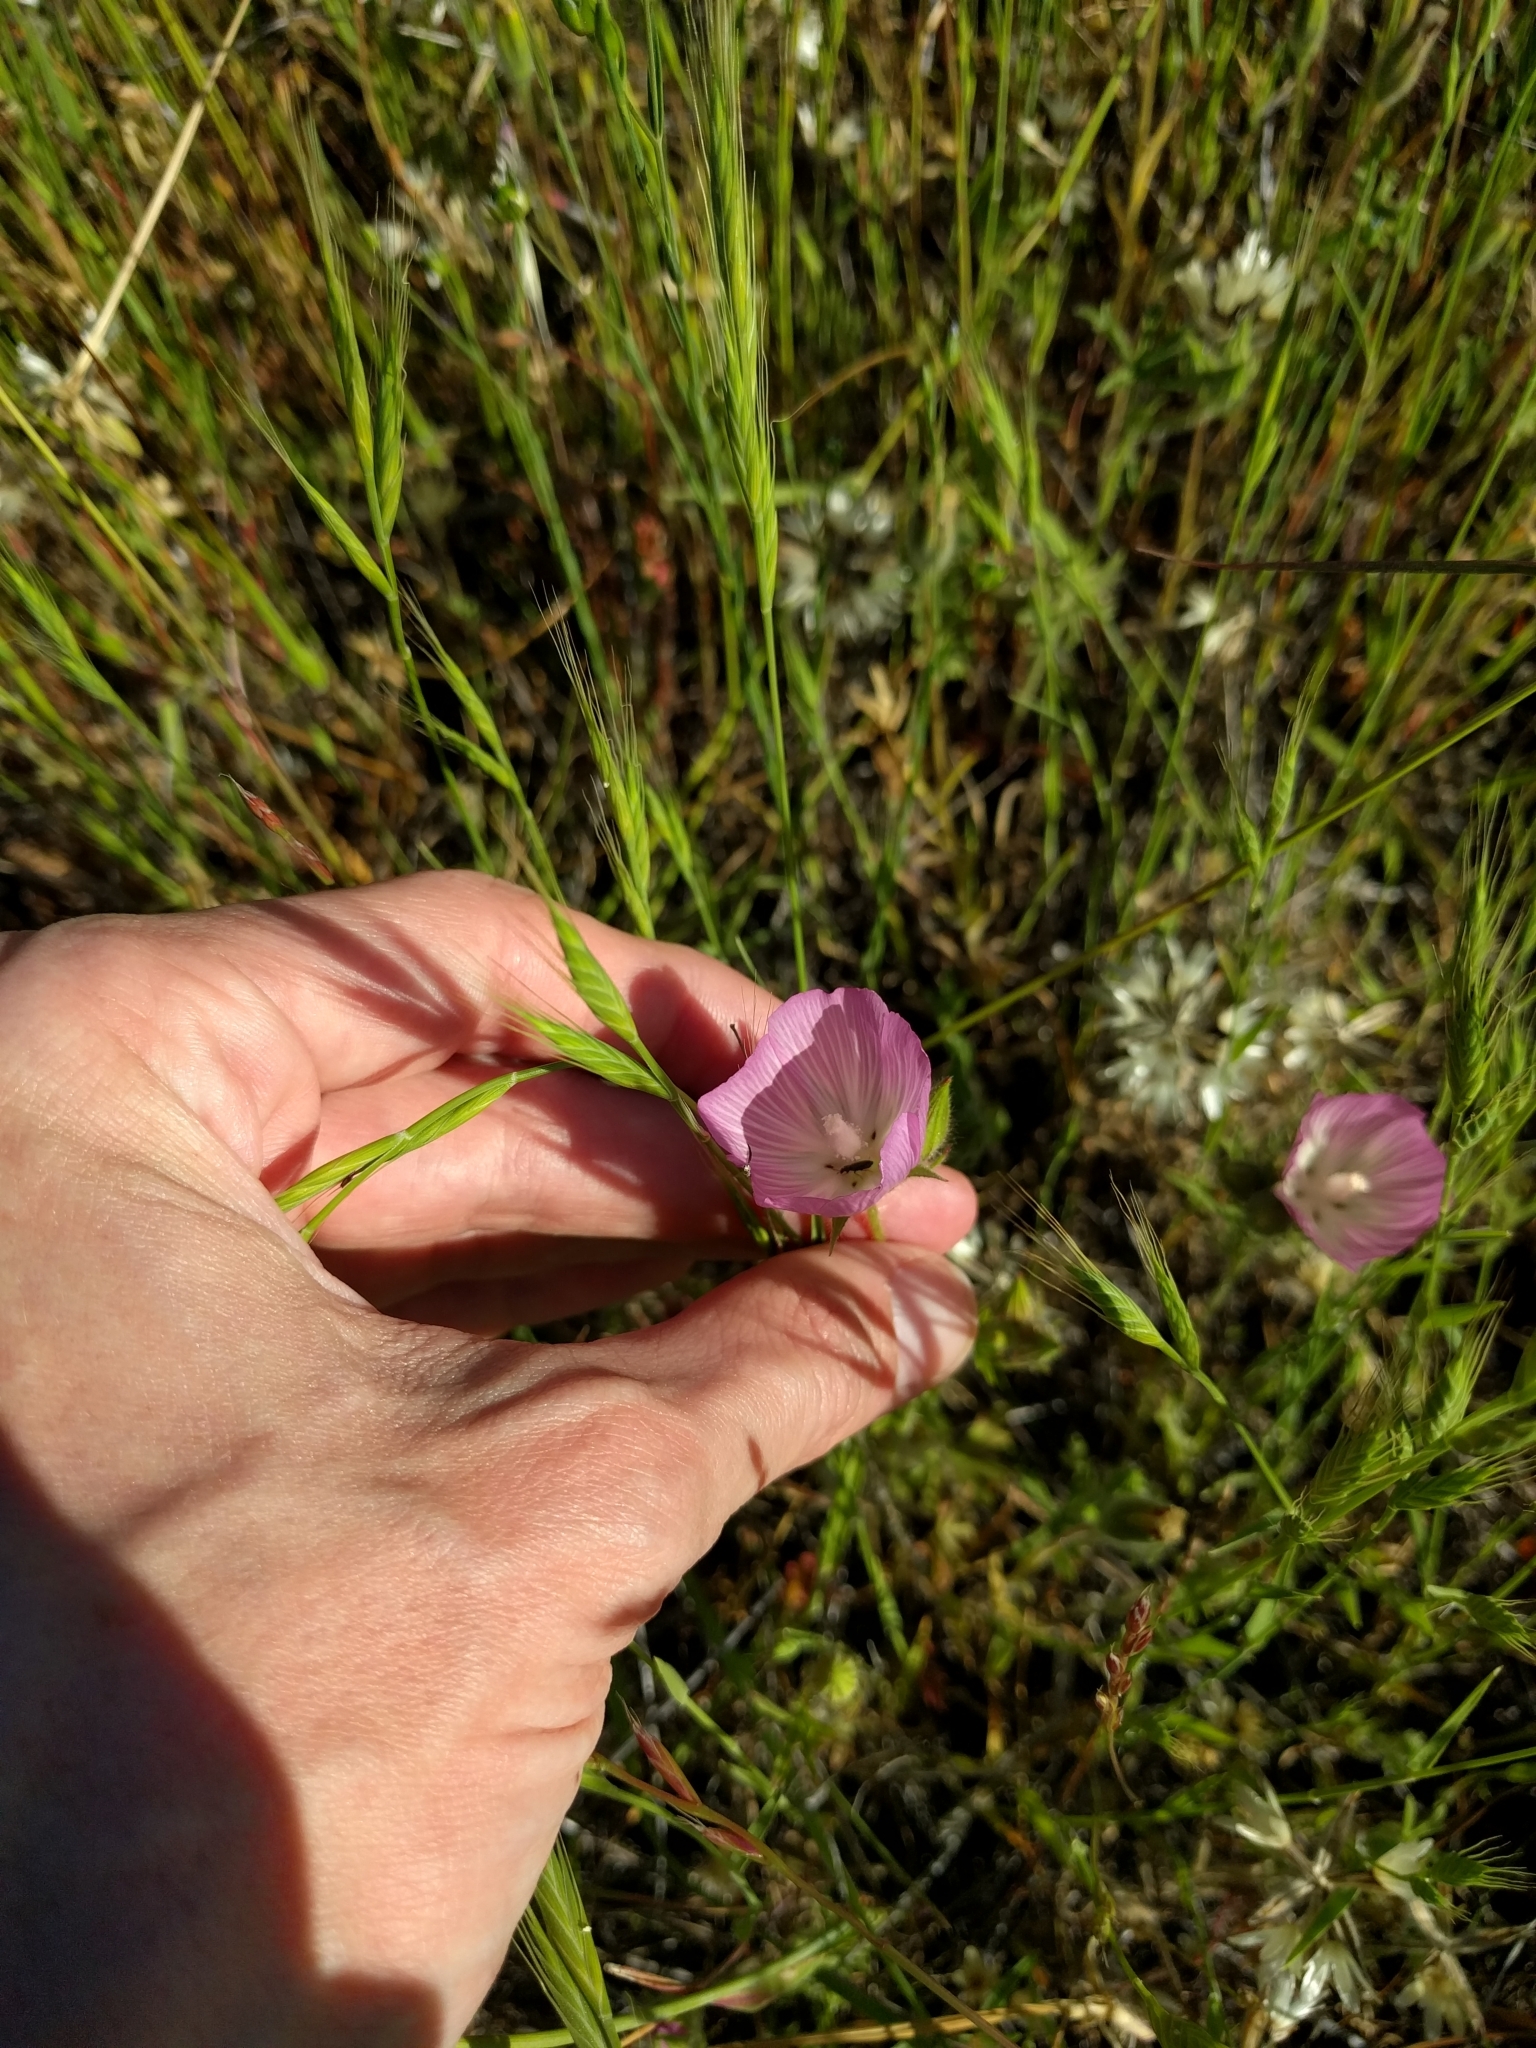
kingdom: Plantae
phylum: Tracheophyta
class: Magnoliopsida
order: Malvales
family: Malvaceae
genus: Sidalcea
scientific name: Sidalcea diploscypha
